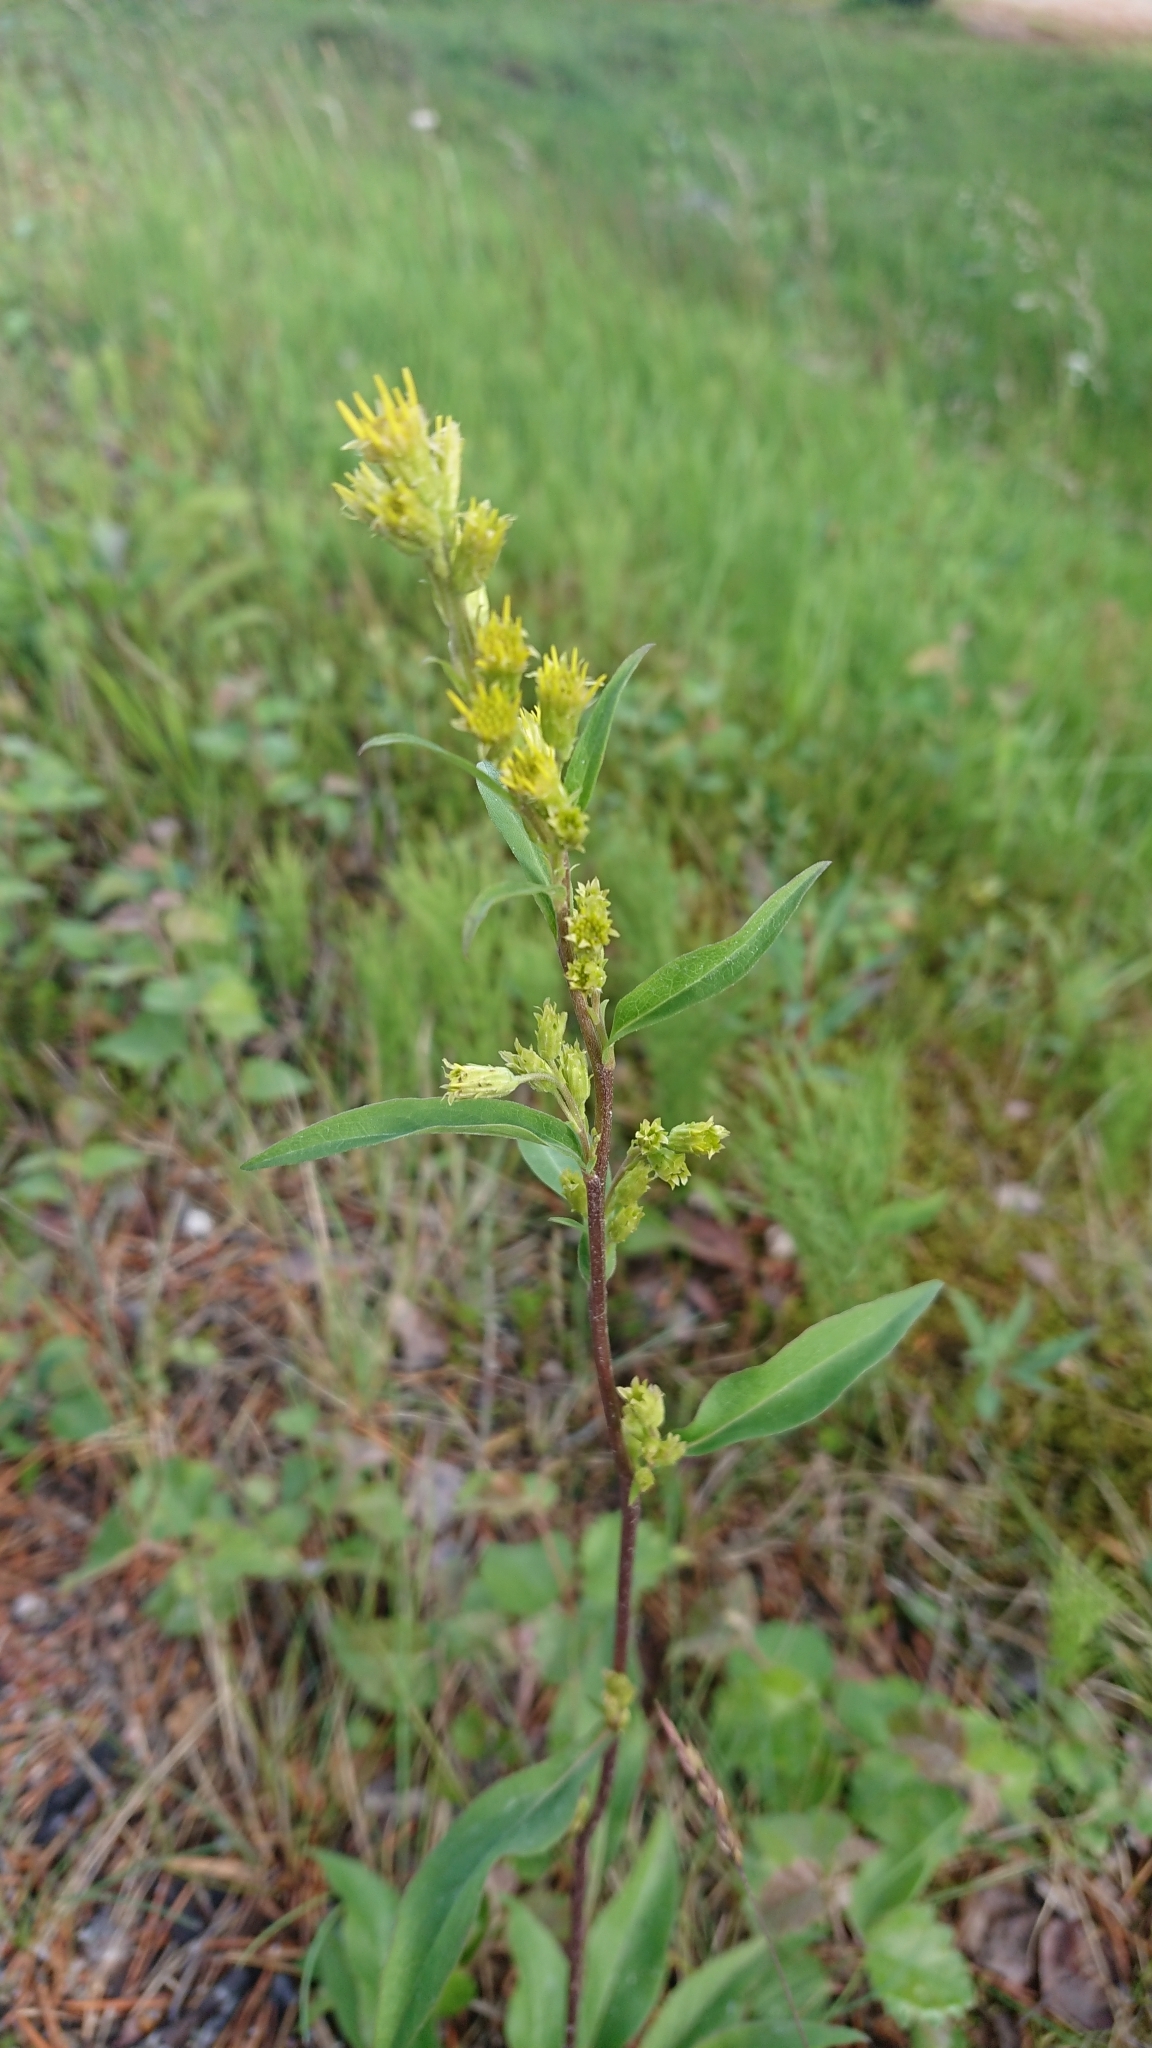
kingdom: Plantae
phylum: Tracheophyta
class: Magnoliopsida
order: Asterales
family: Asteraceae
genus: Solidago
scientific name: Solidago virgaurea
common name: Goldenrod
